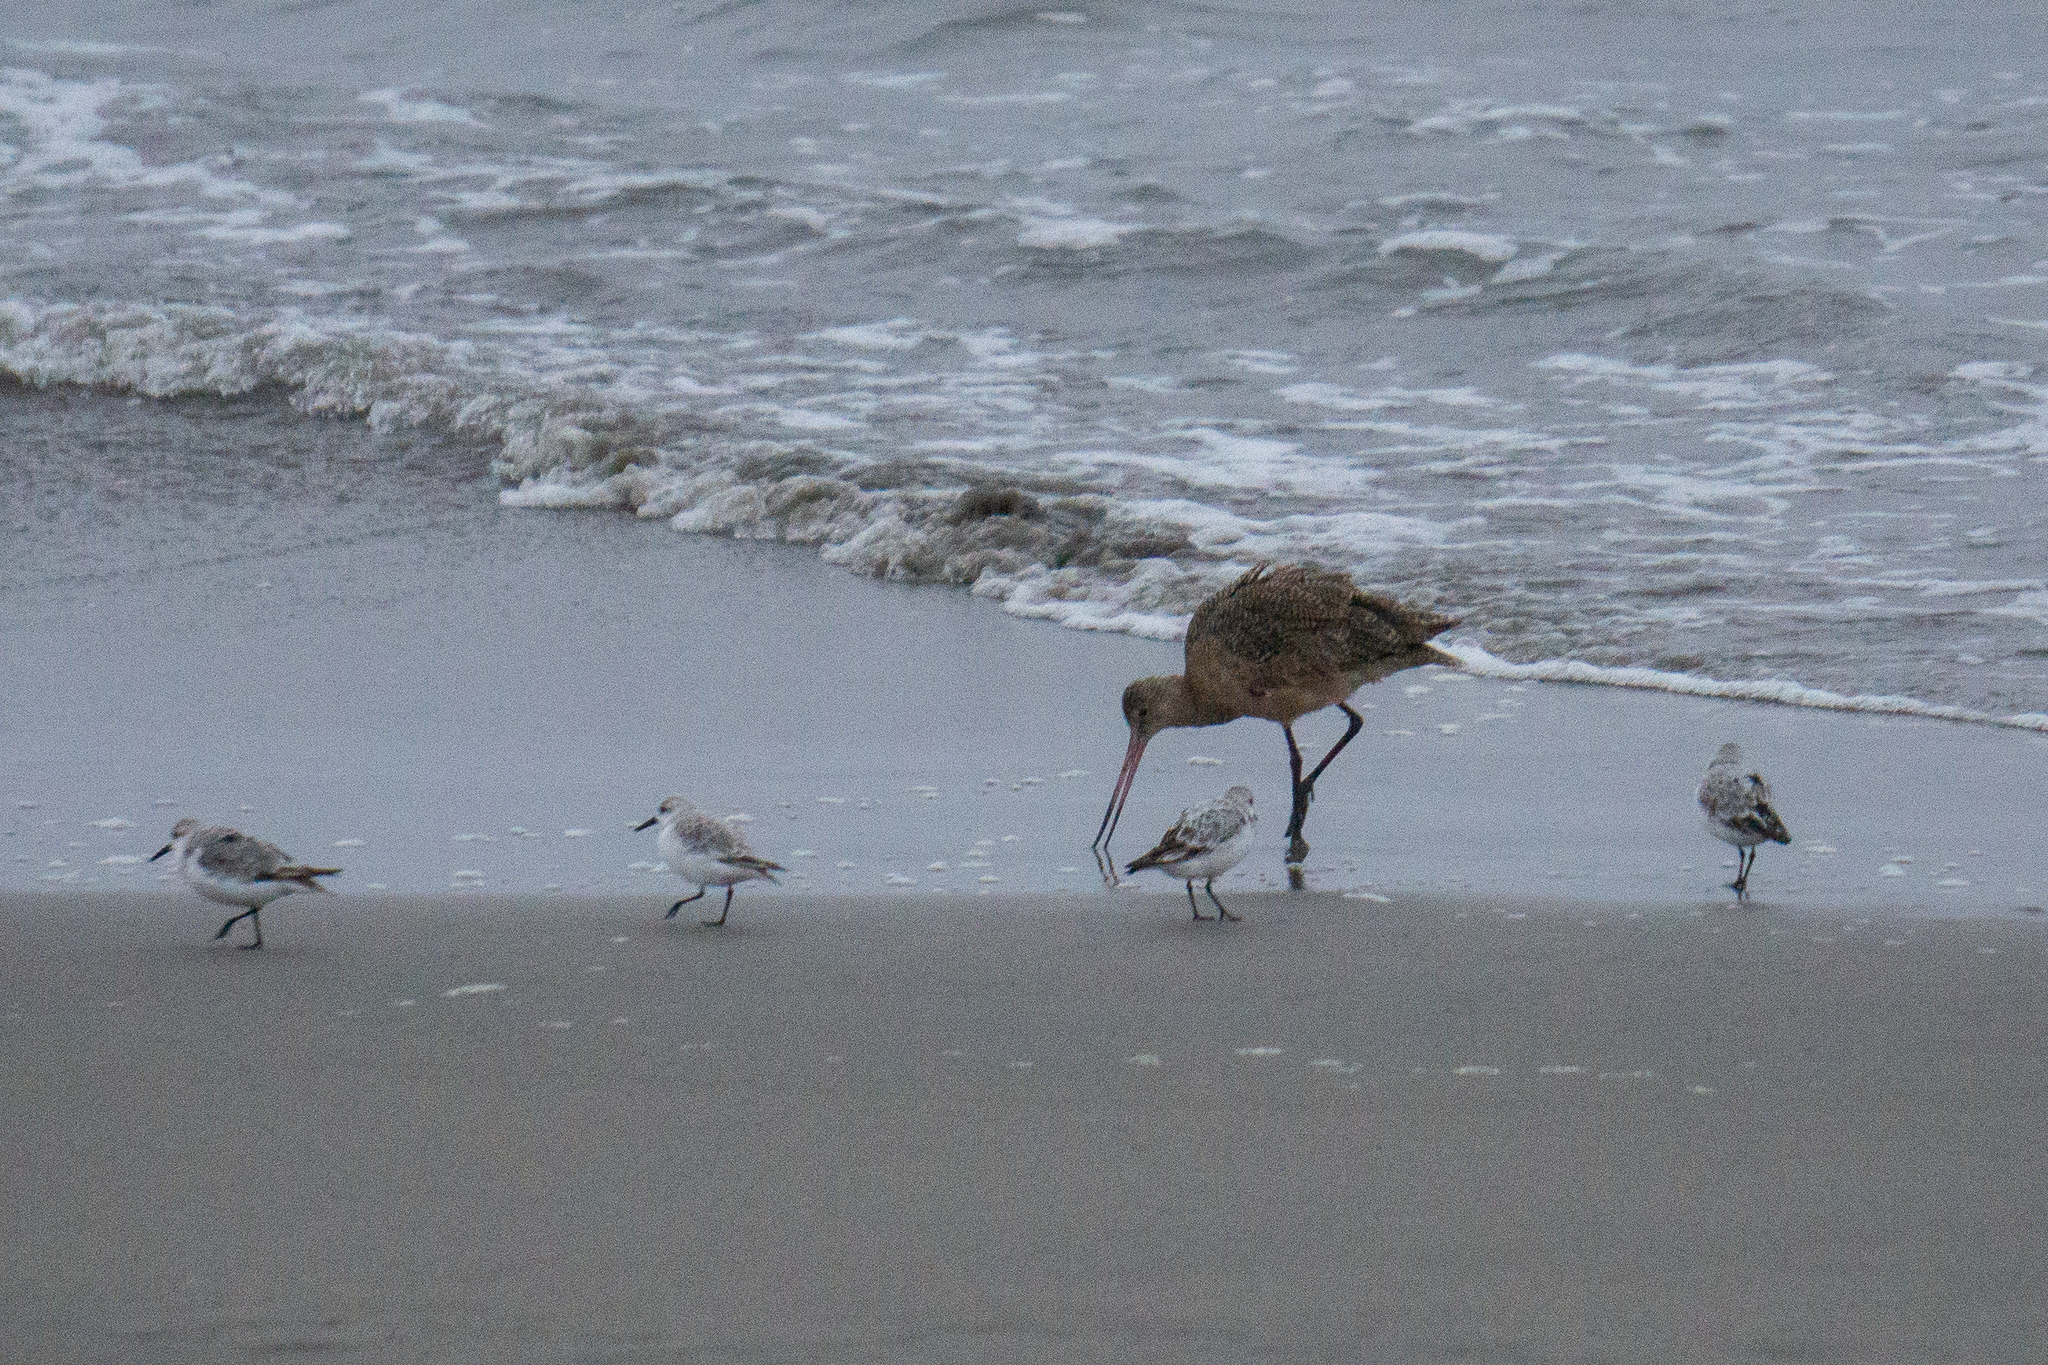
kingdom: Animalia
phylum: Chordata
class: Aves
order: Charadriiformes
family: Scolopacidae
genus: Limosa
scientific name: Limosa fedoa
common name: Marbled godwit
